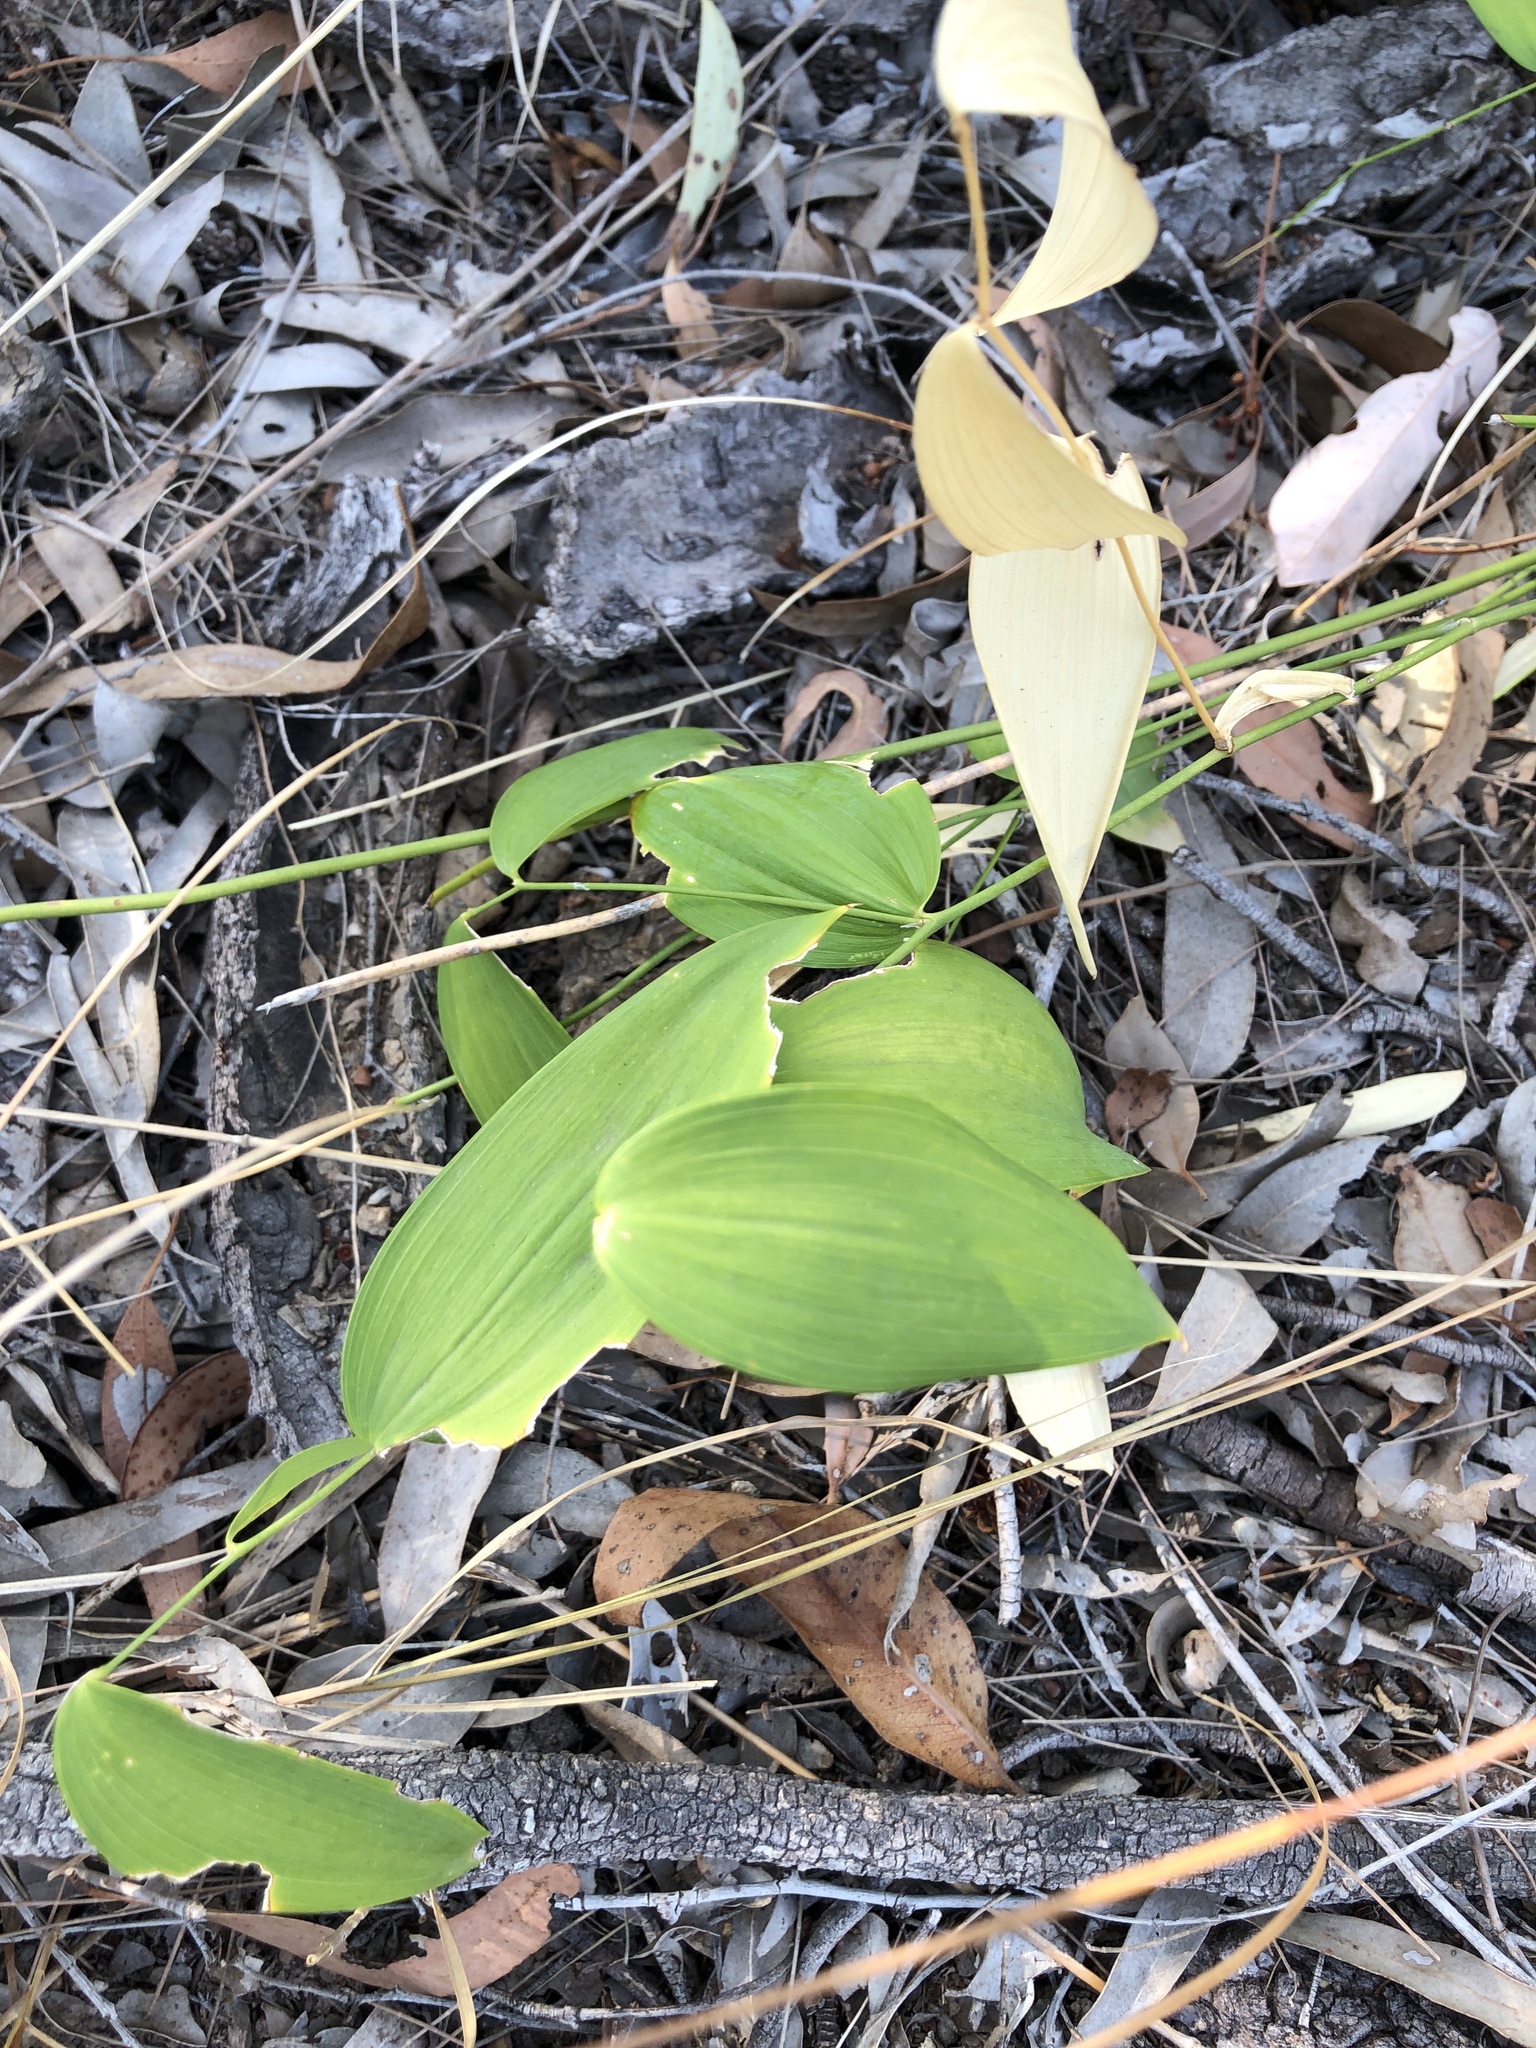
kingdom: Plantae
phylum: Tracheophyta
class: Liliopsida
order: Asparagales
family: Asparagaceae
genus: Eustrephus
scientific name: Eustrephus latifolius
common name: Orangevine
